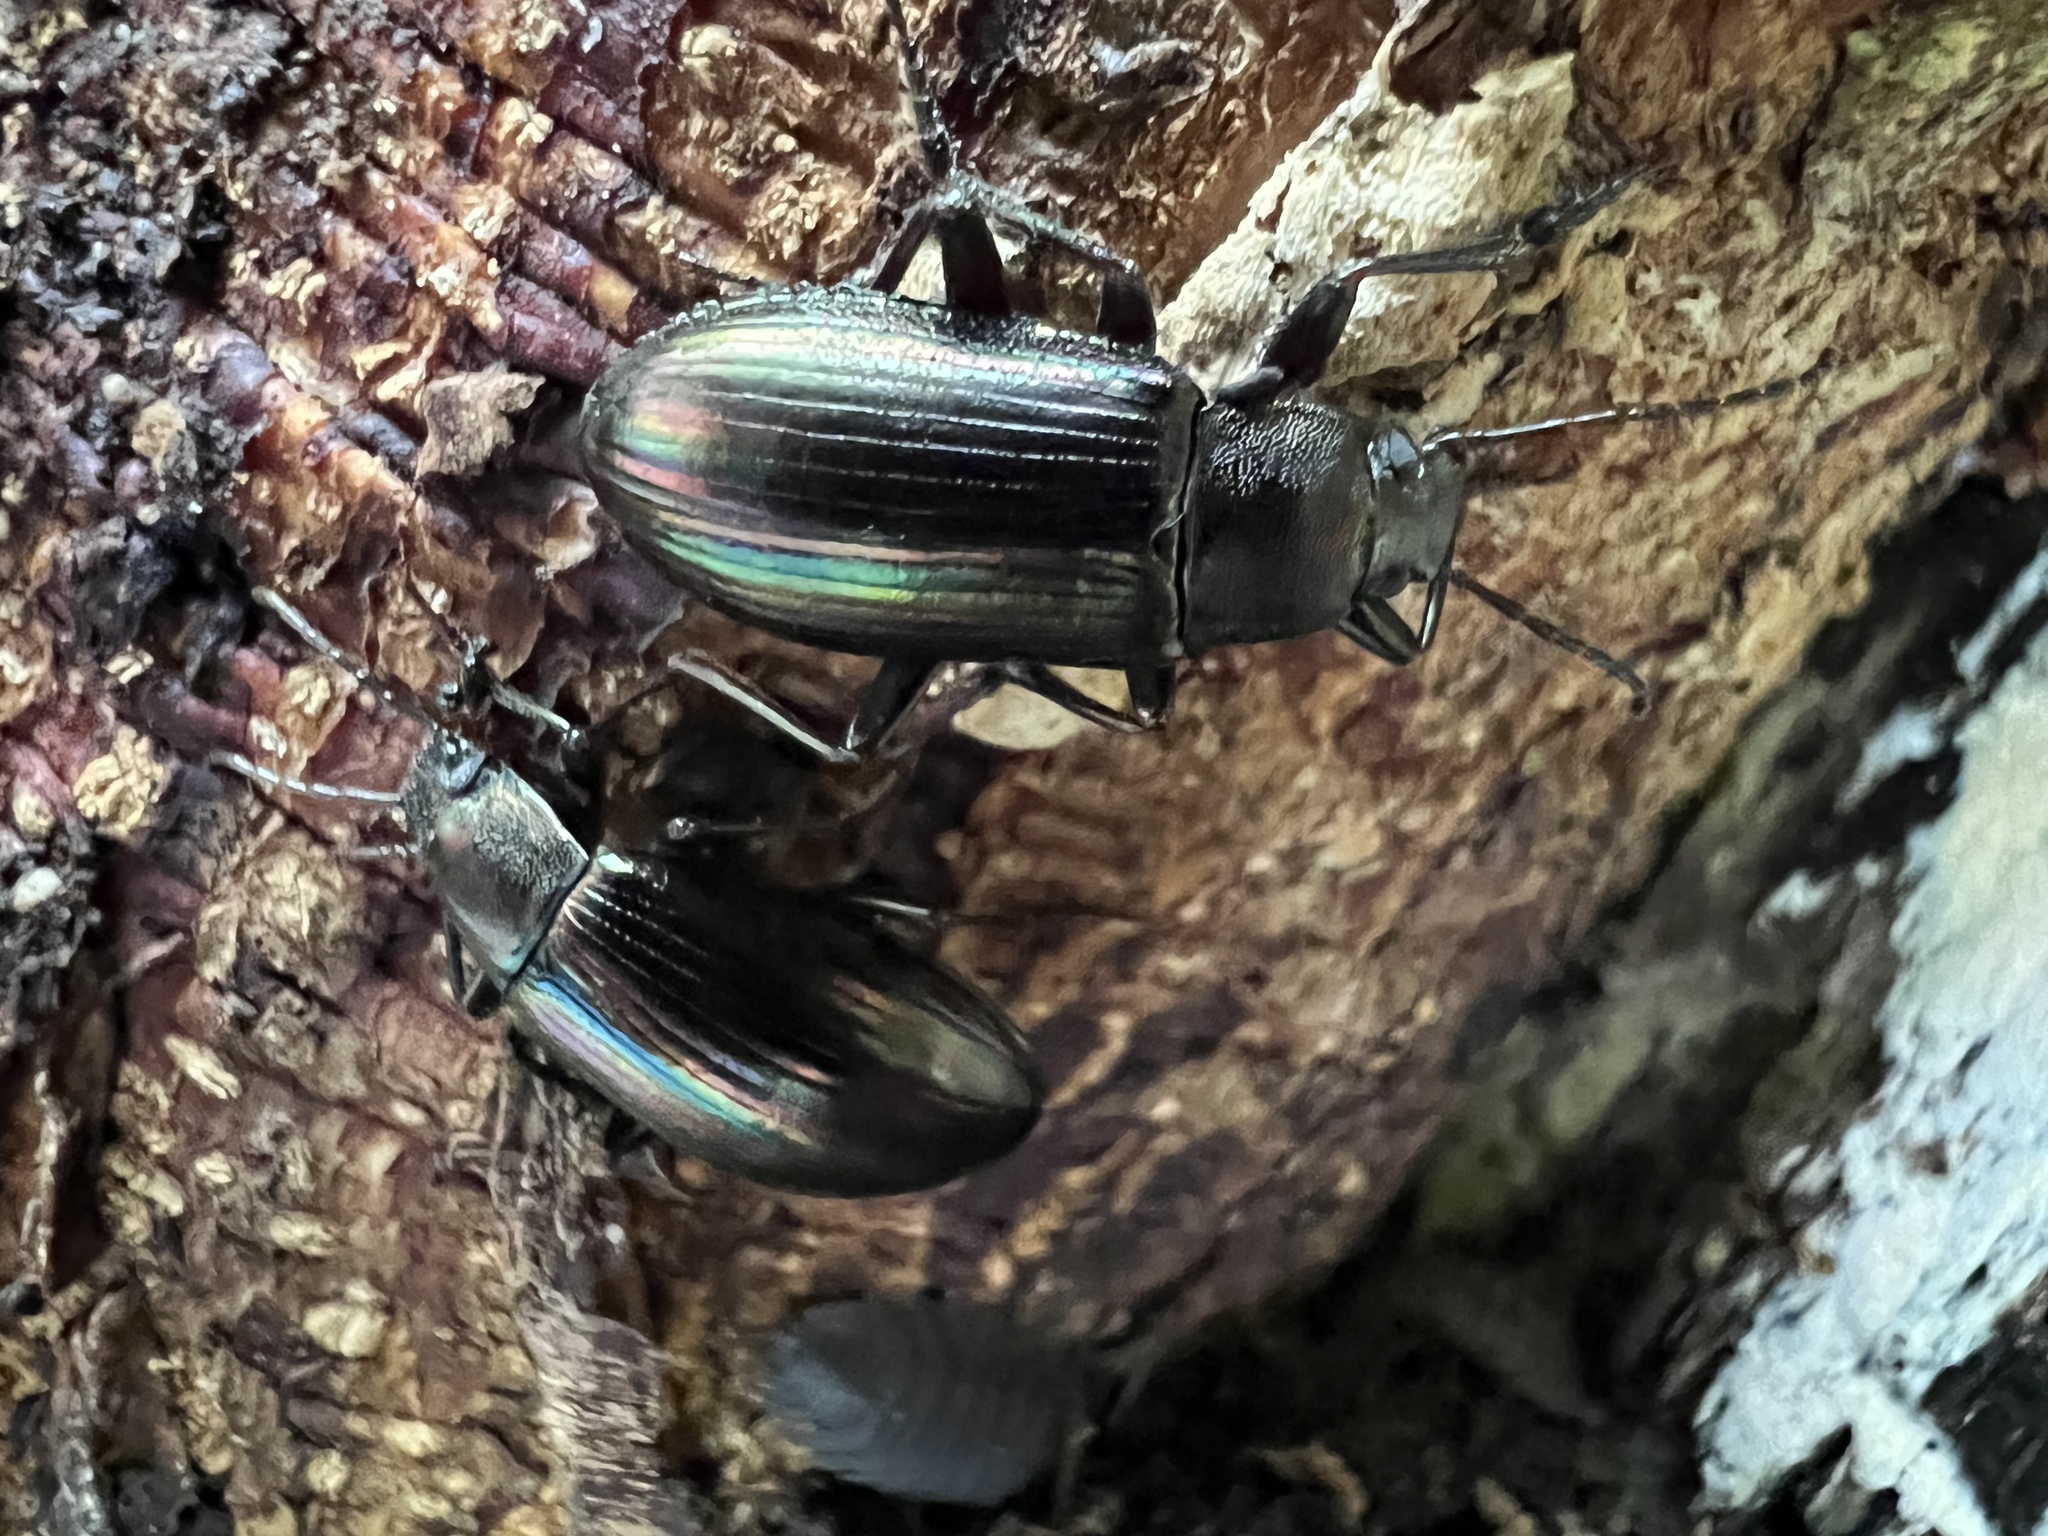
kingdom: Animalia
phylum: Arthropoda
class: Insecta
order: Coleoptera
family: Tenebrionidae
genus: Tarpela
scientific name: Tarpela micans
